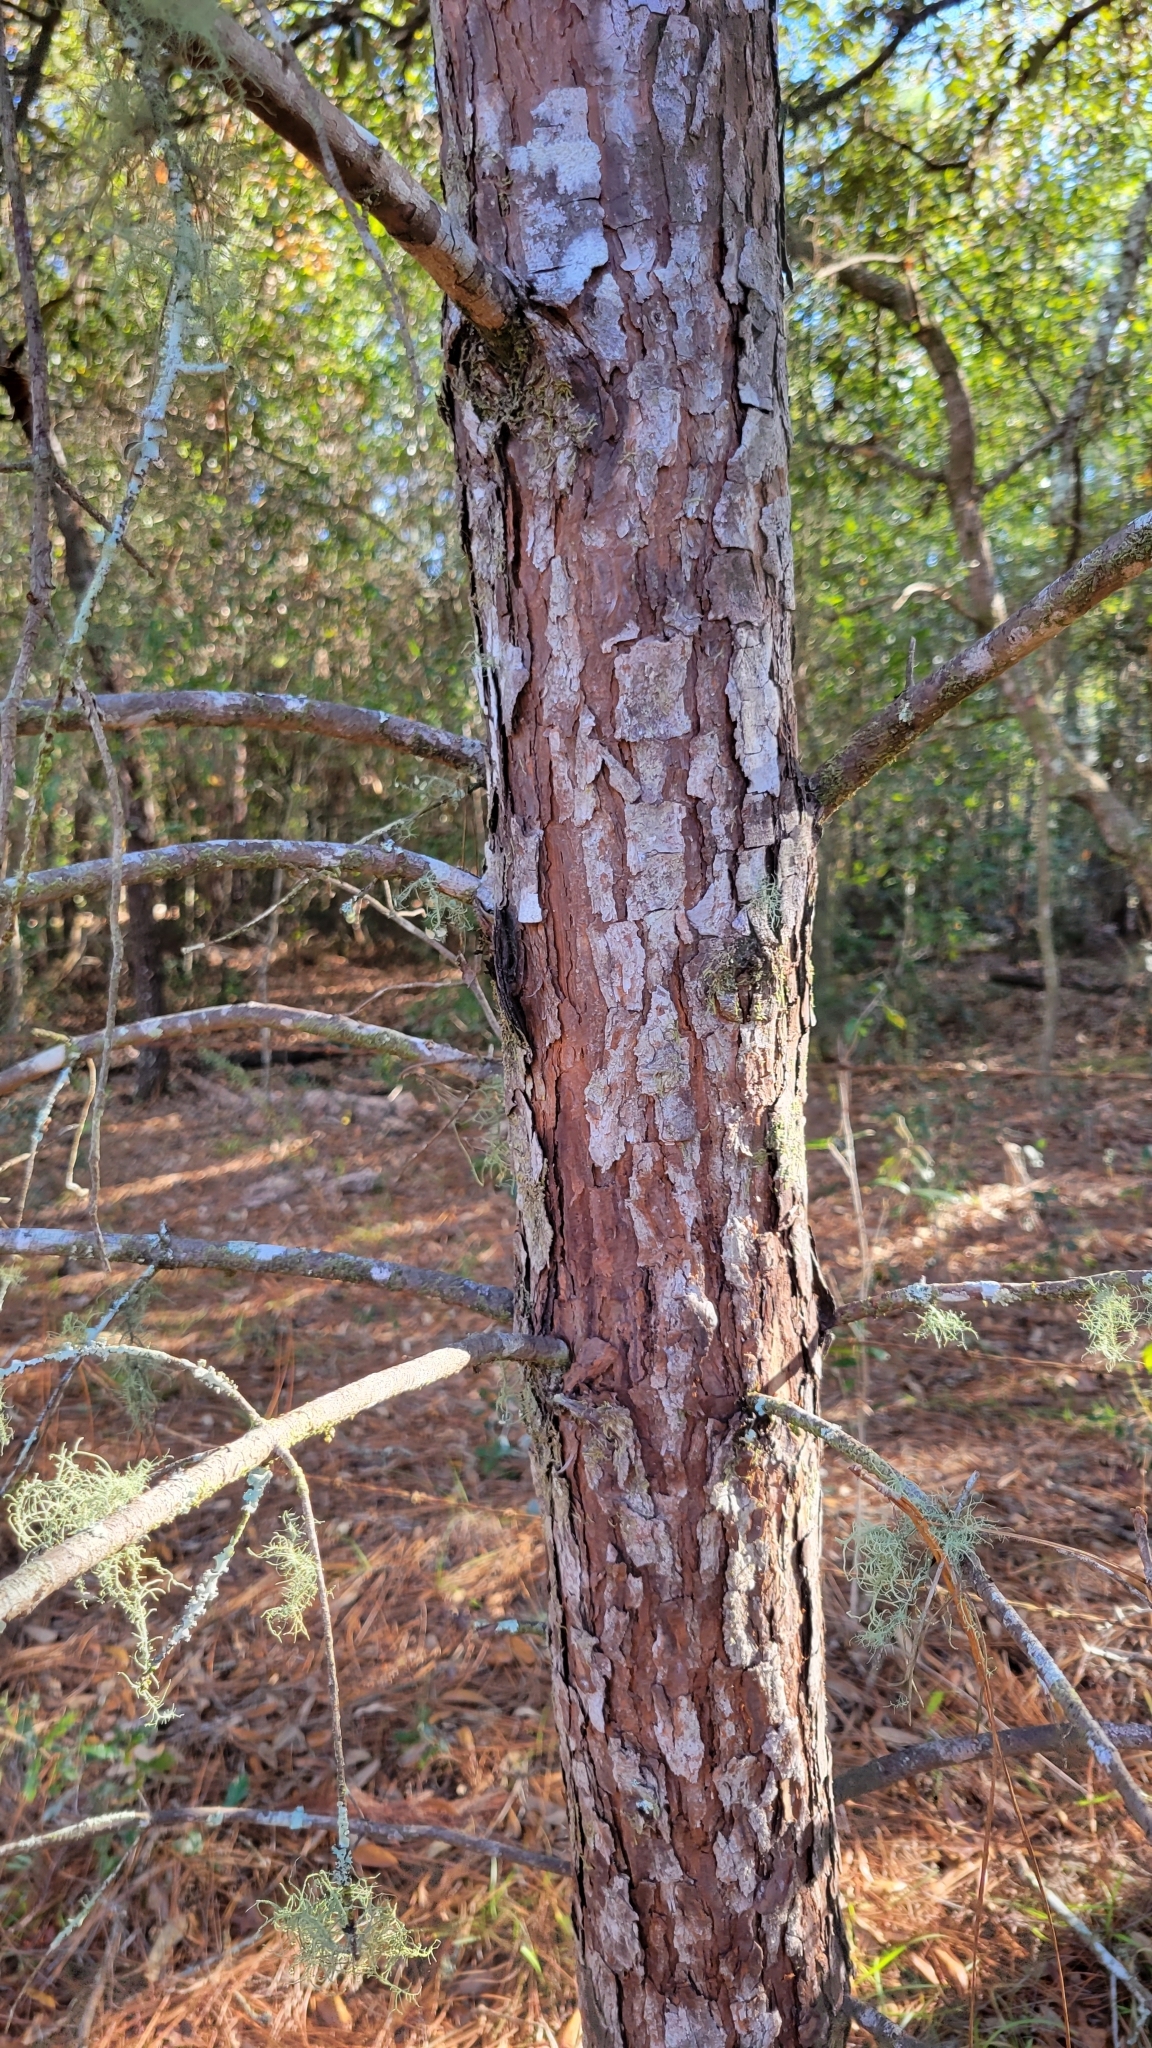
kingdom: Plantae
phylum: Tracheophyta
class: Pinopsida
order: Pinales
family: Pinaceae
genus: Pinus
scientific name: Pinus clausa
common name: Sand pine
